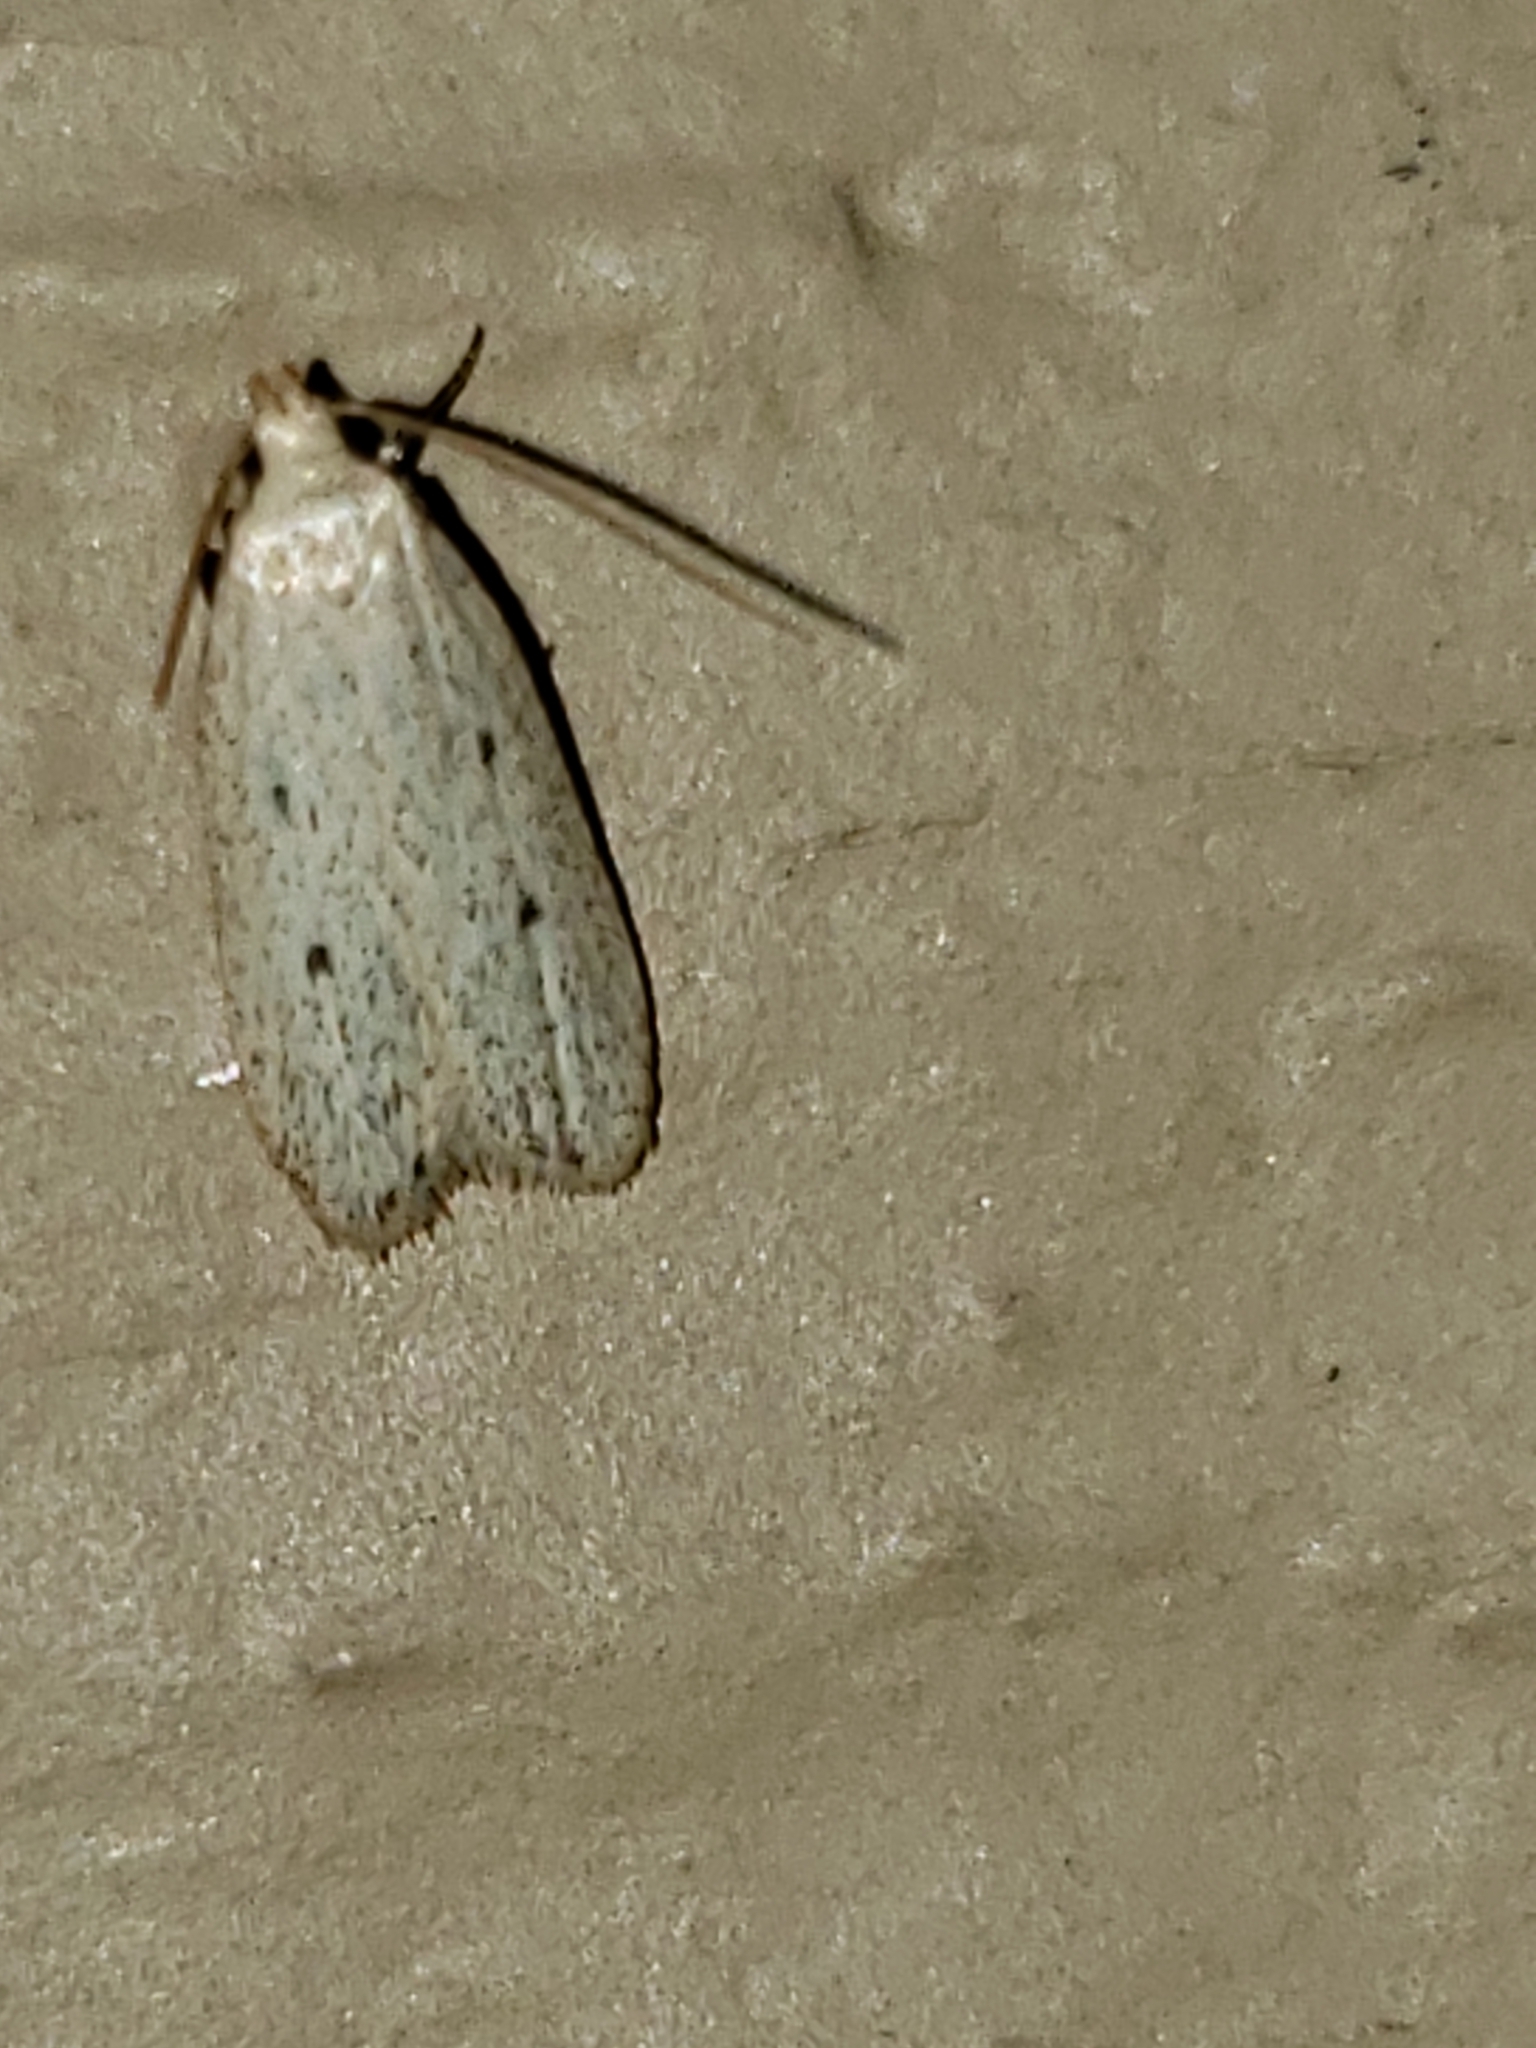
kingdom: Animalia
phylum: Arthropoda
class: Insecta
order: Lepidoptera
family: Autostichidae
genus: Glyphidocera
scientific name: Glyphidocera dimorphella
